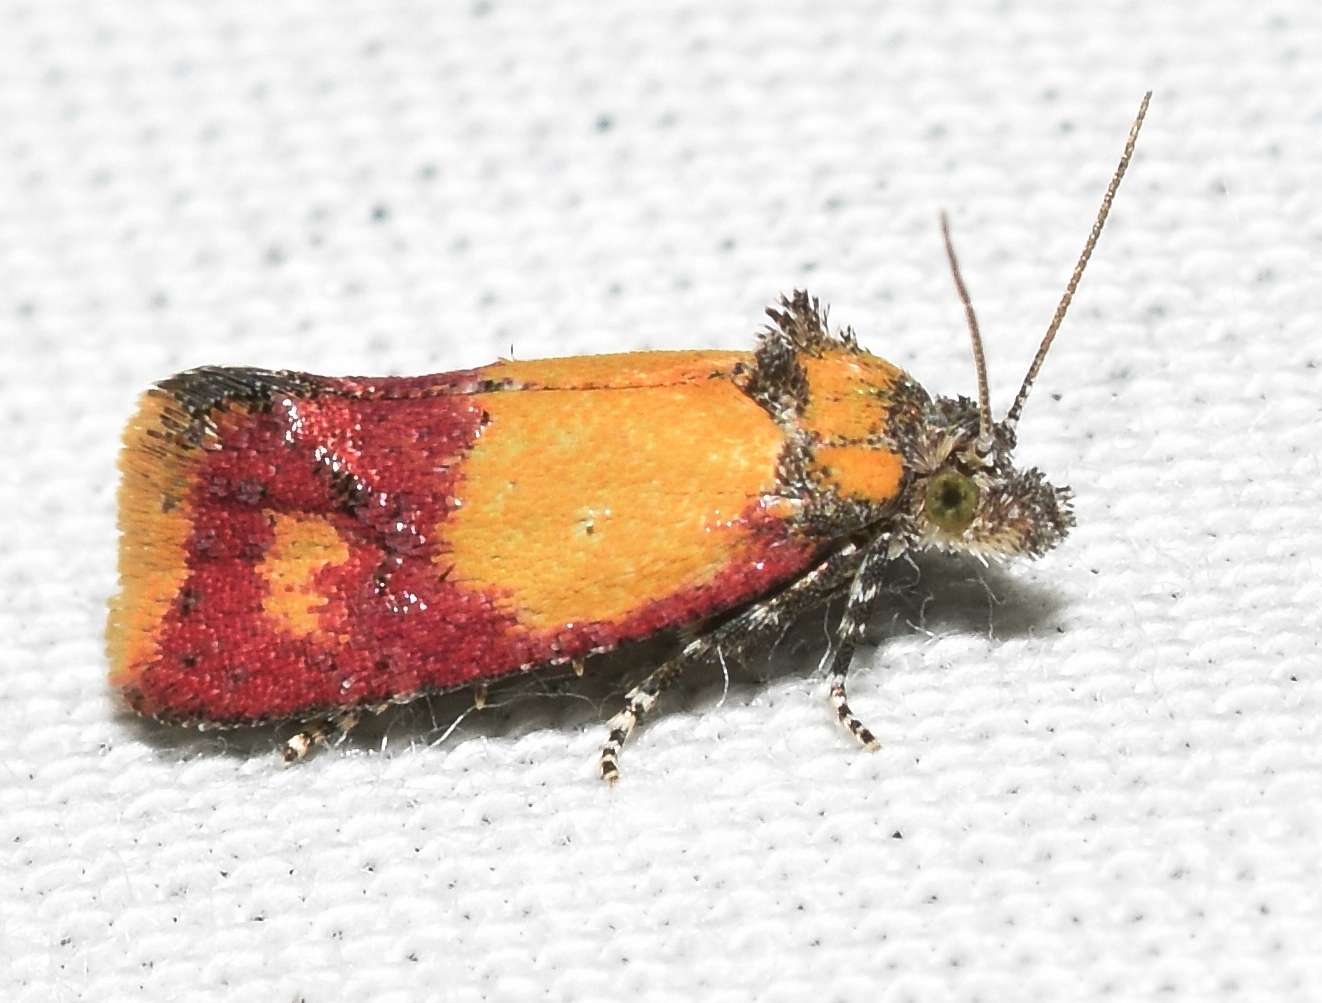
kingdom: Animalia
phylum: Arthropoda
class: Insecta
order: Lepidoptera
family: Tortricidae
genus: Conchylis
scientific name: Conchylis oenotherana
